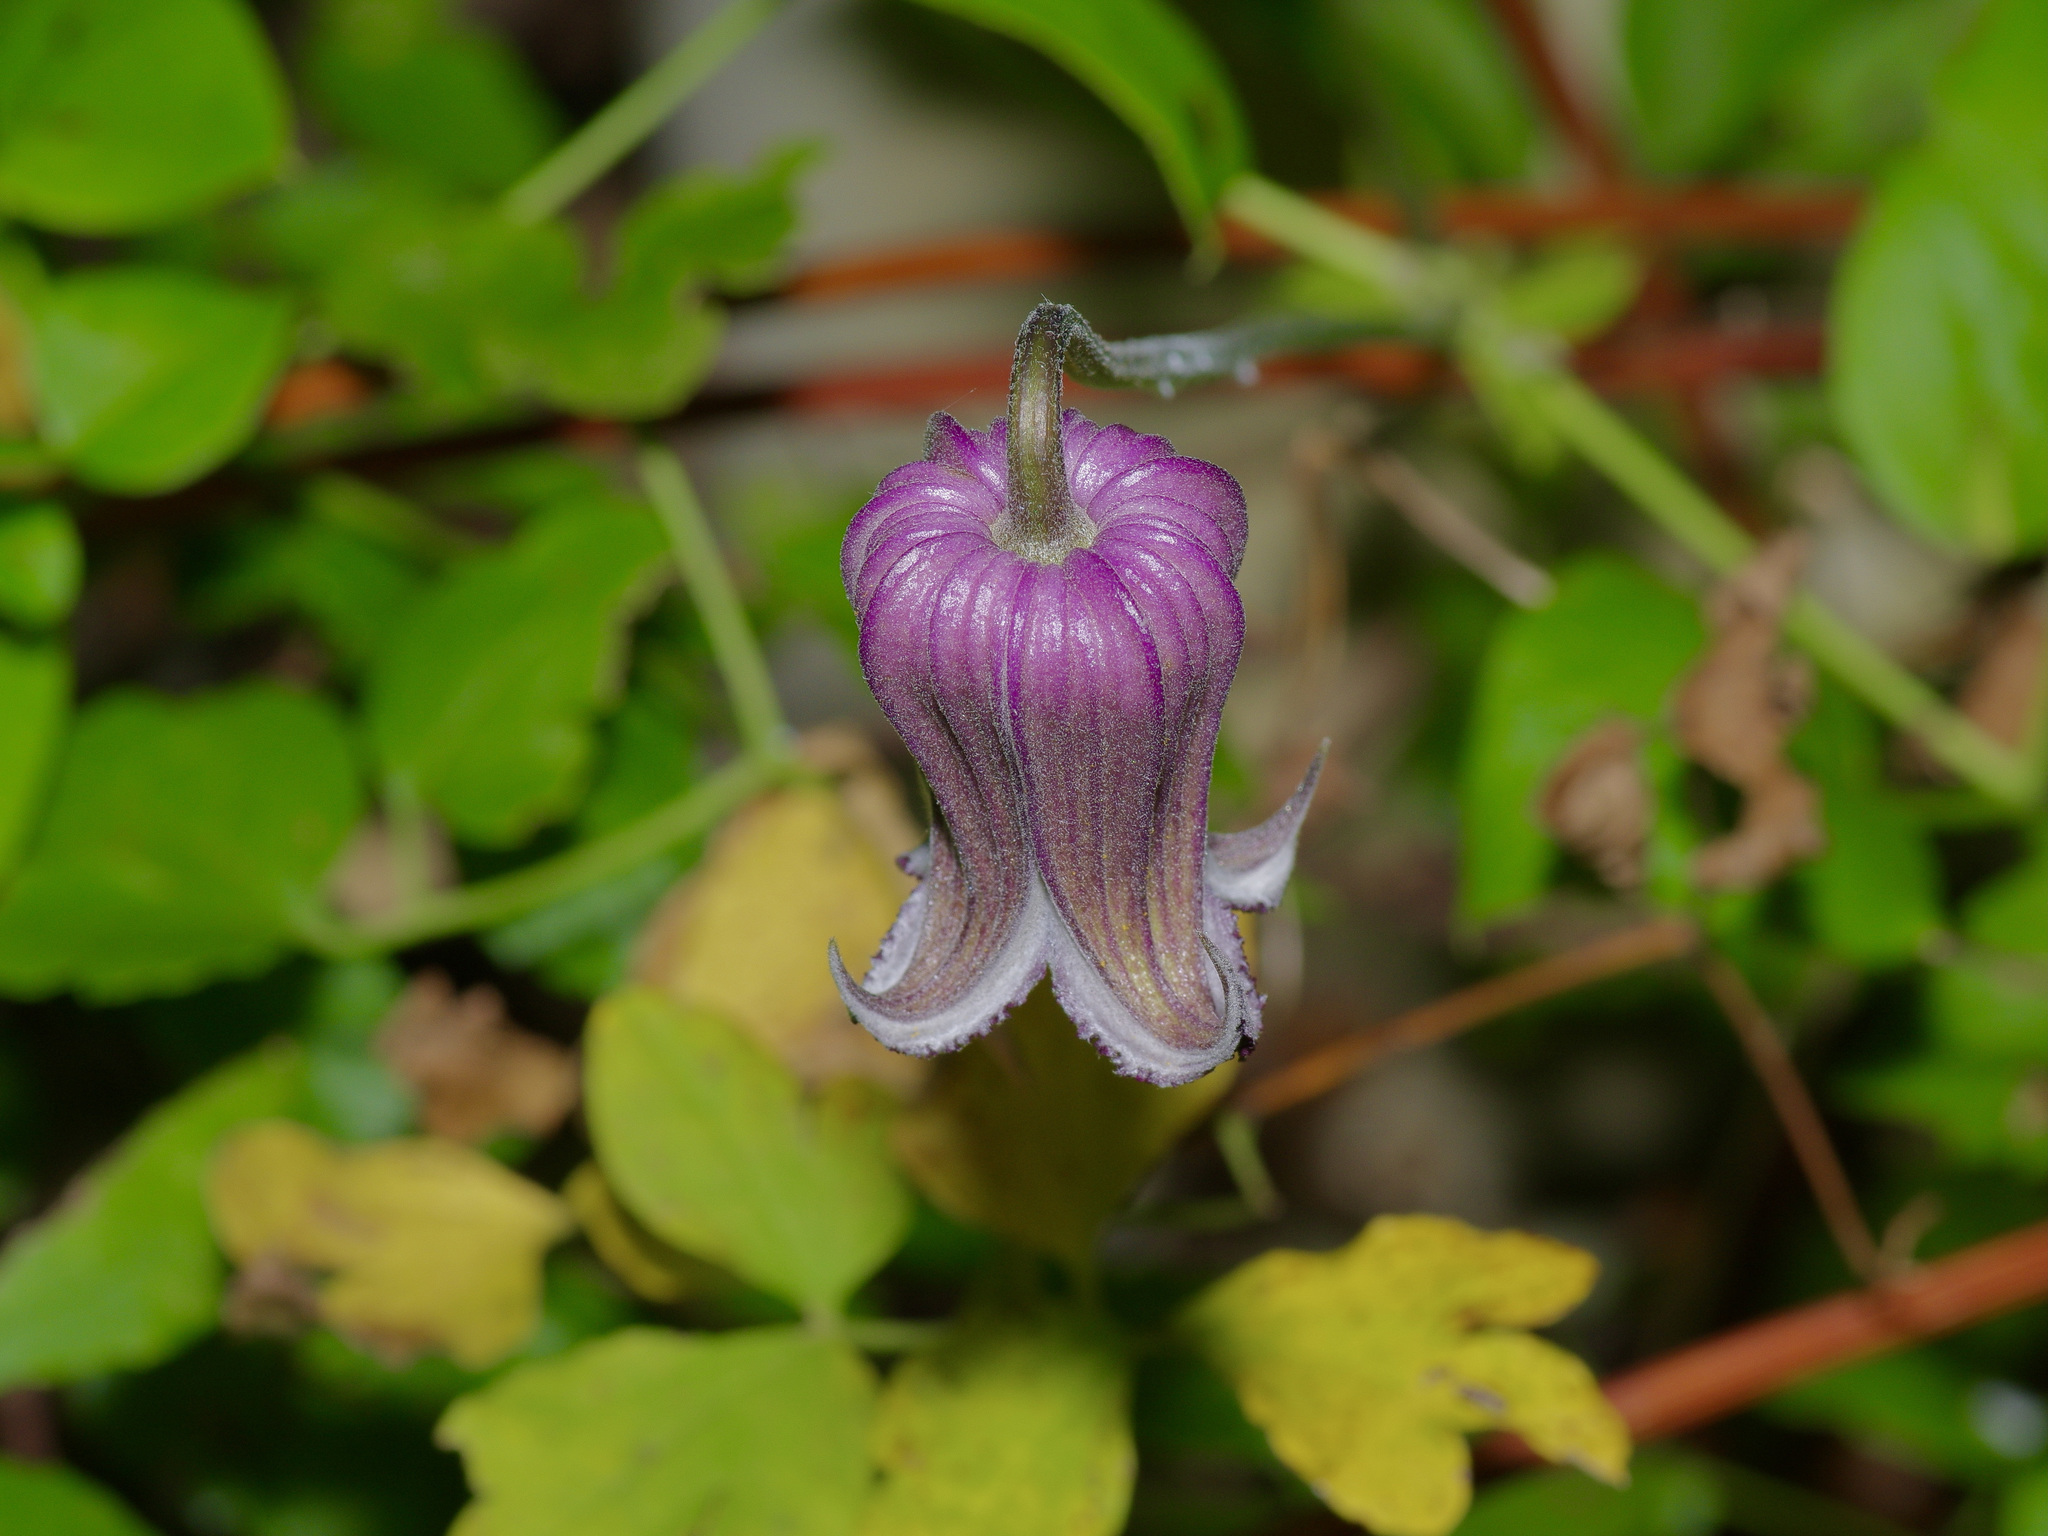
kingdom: Plantae
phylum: Tracheophyta
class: Magnoliopsida
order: Ranunculales
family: Ranunculaceae
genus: Clematis
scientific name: Clematis pitcheri
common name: Bellflower clematis
